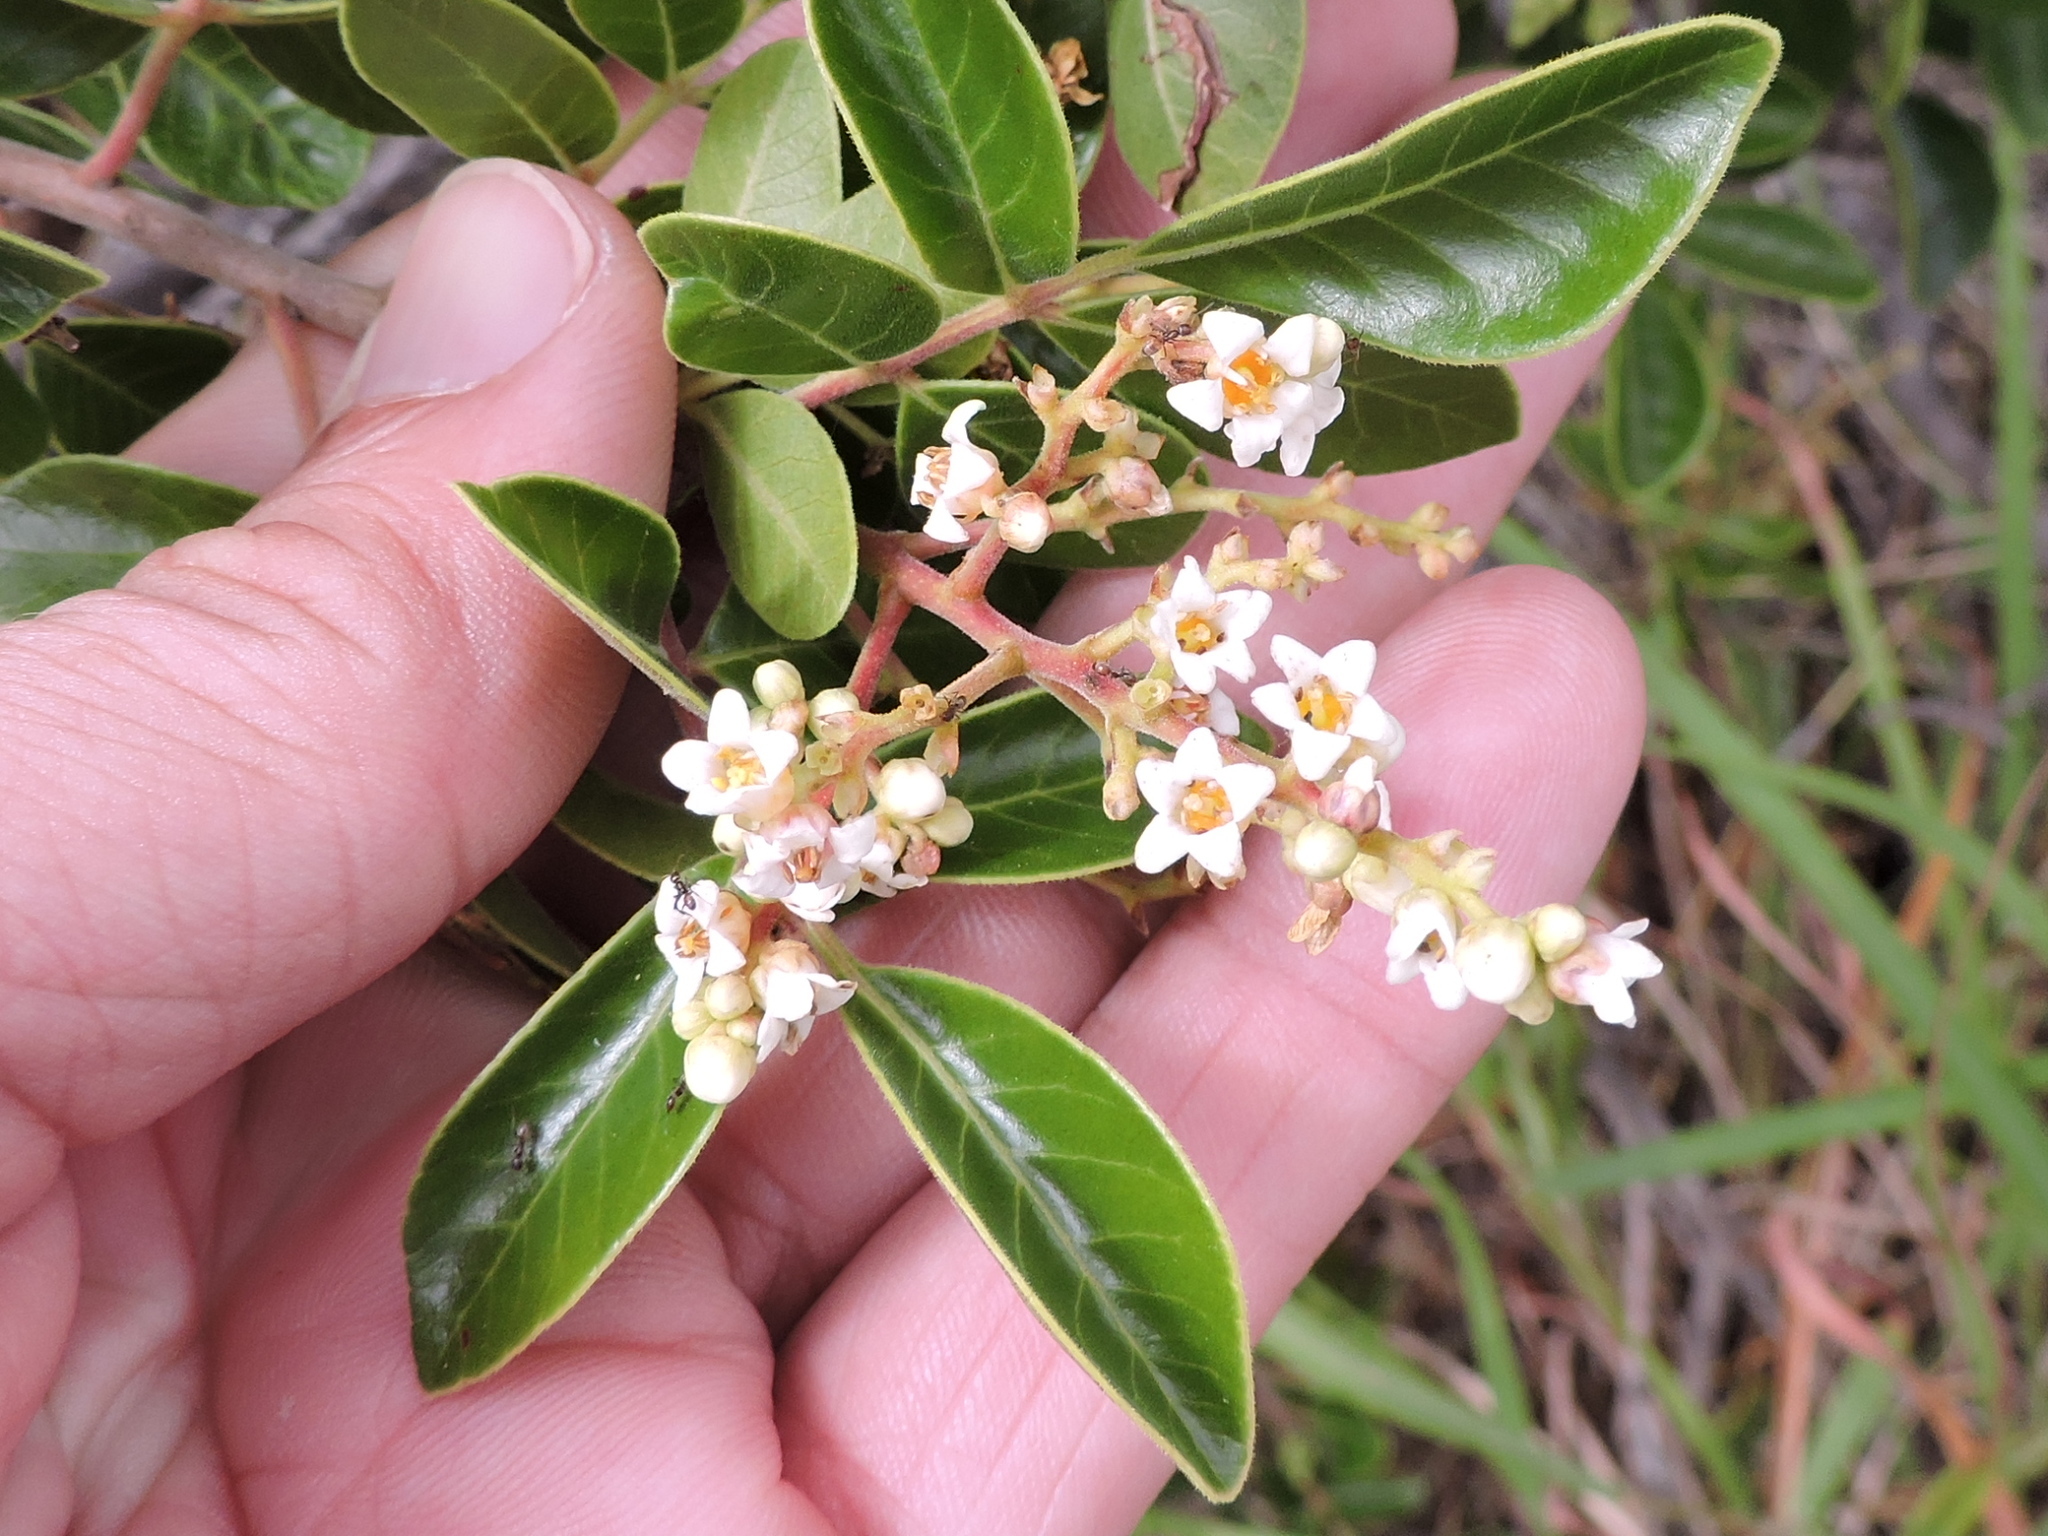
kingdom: Plantae
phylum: Tracheophyta
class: Magnoliopsida
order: Sapindales
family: Anacardiaceae
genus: Rhus
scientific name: Rhus virens
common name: Evergreen sumac
